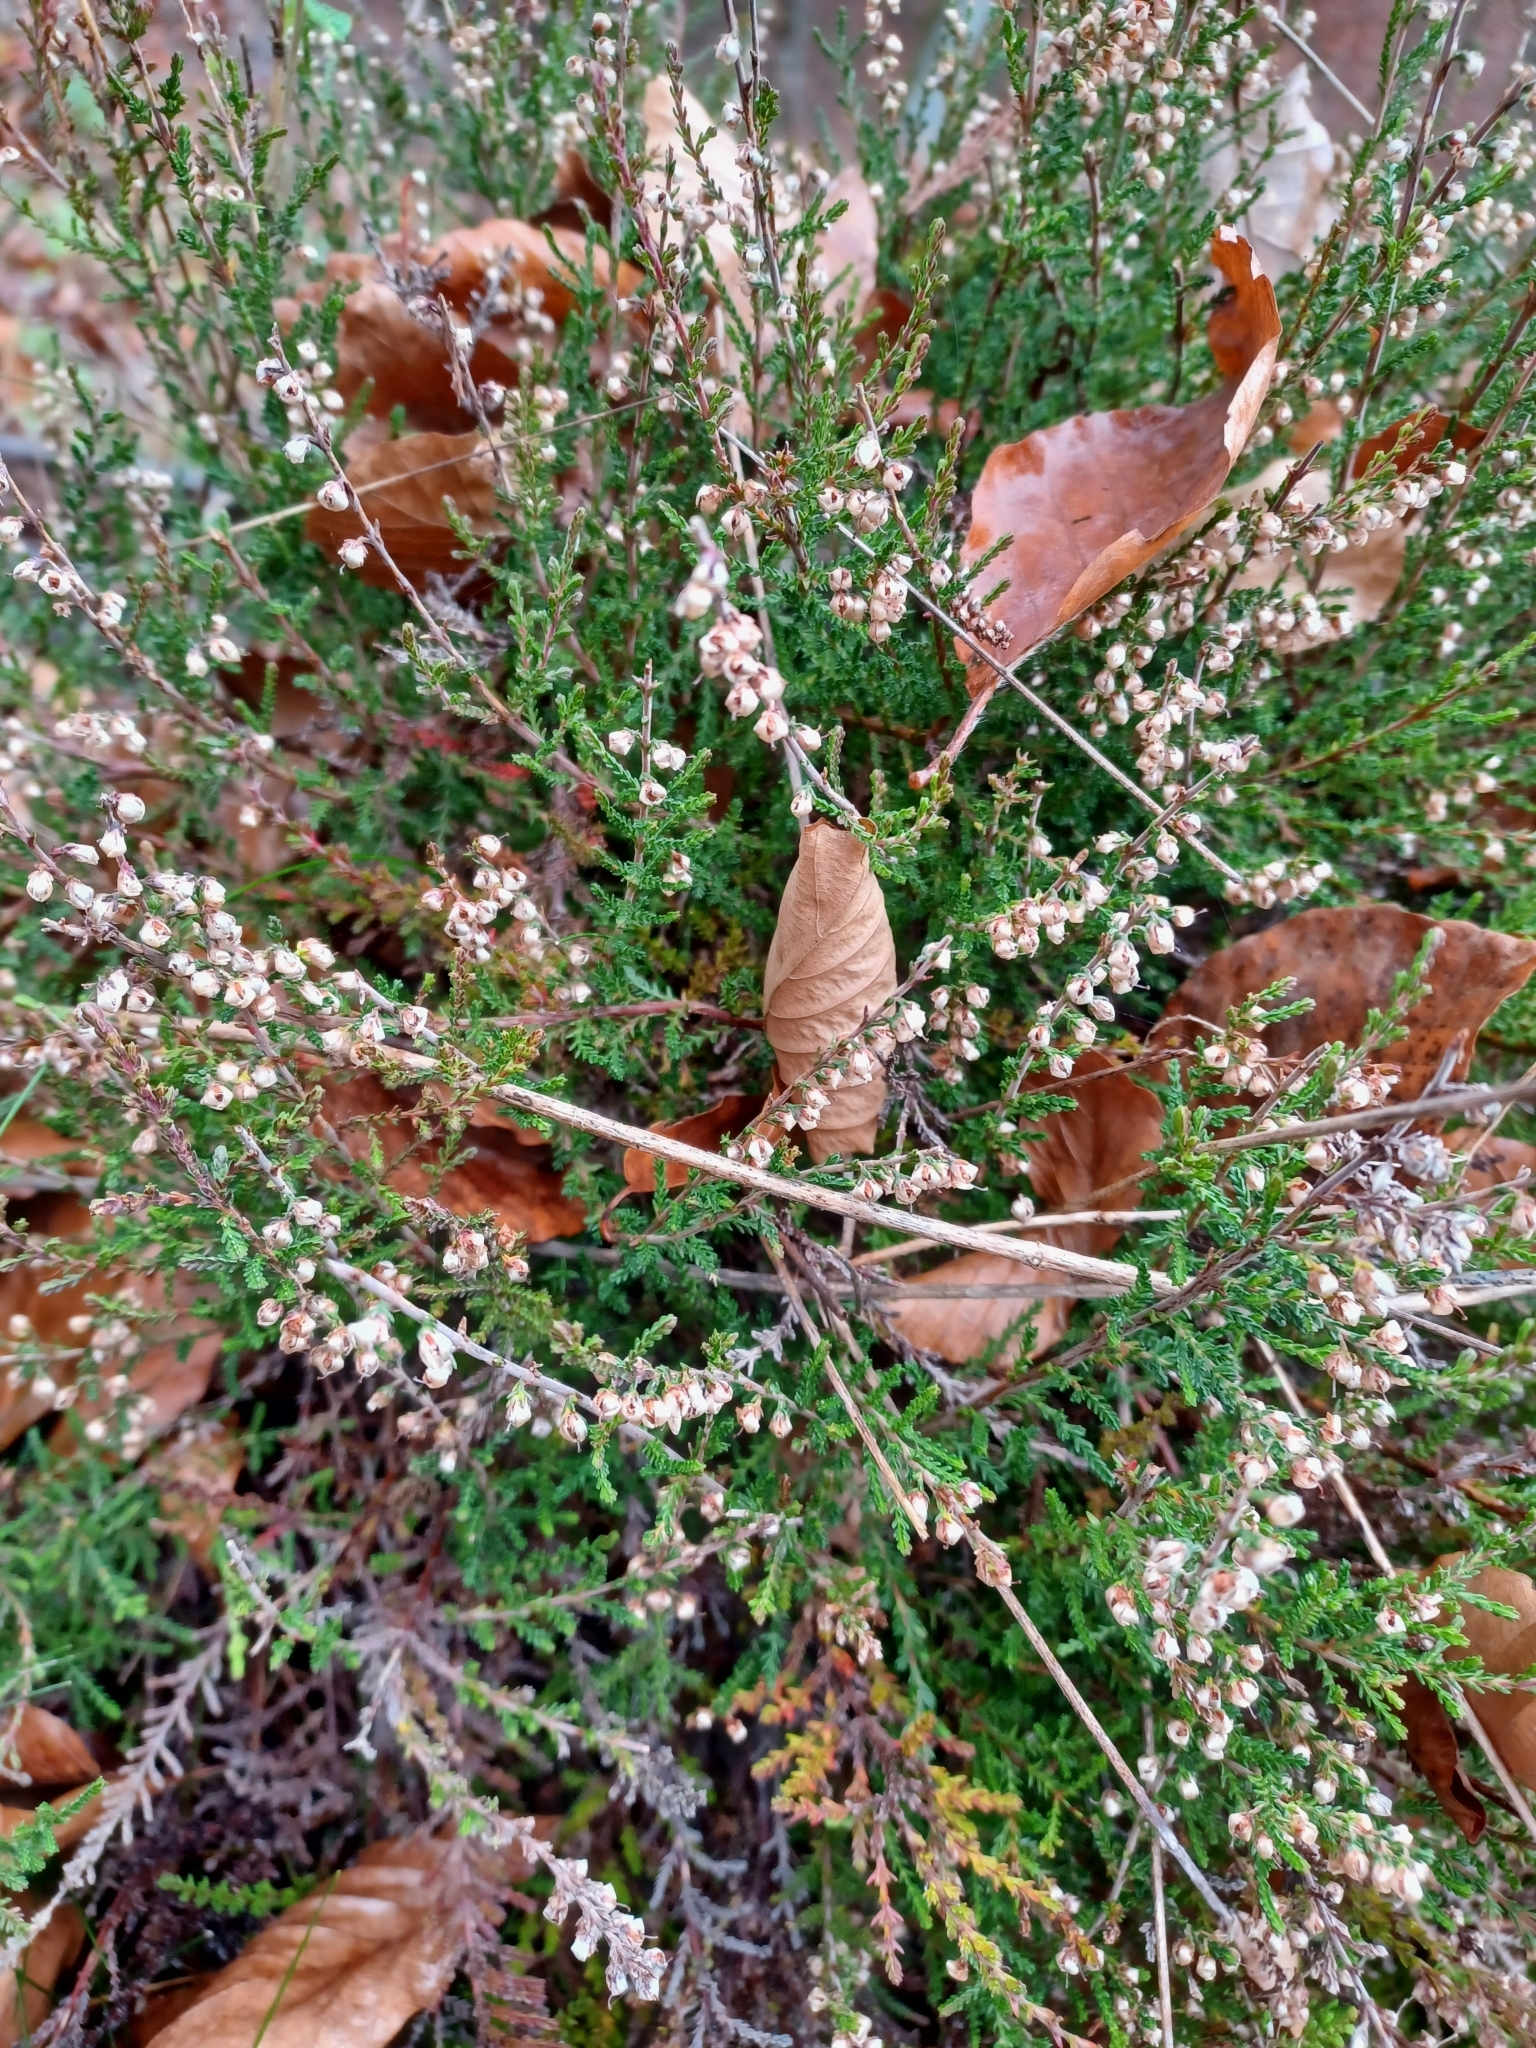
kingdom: Plantae
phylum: Tracheophyta
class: Magnoliopsida
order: Ericales
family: Ericaceae
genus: Calluna
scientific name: Calluna vulgaris
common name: Heather
